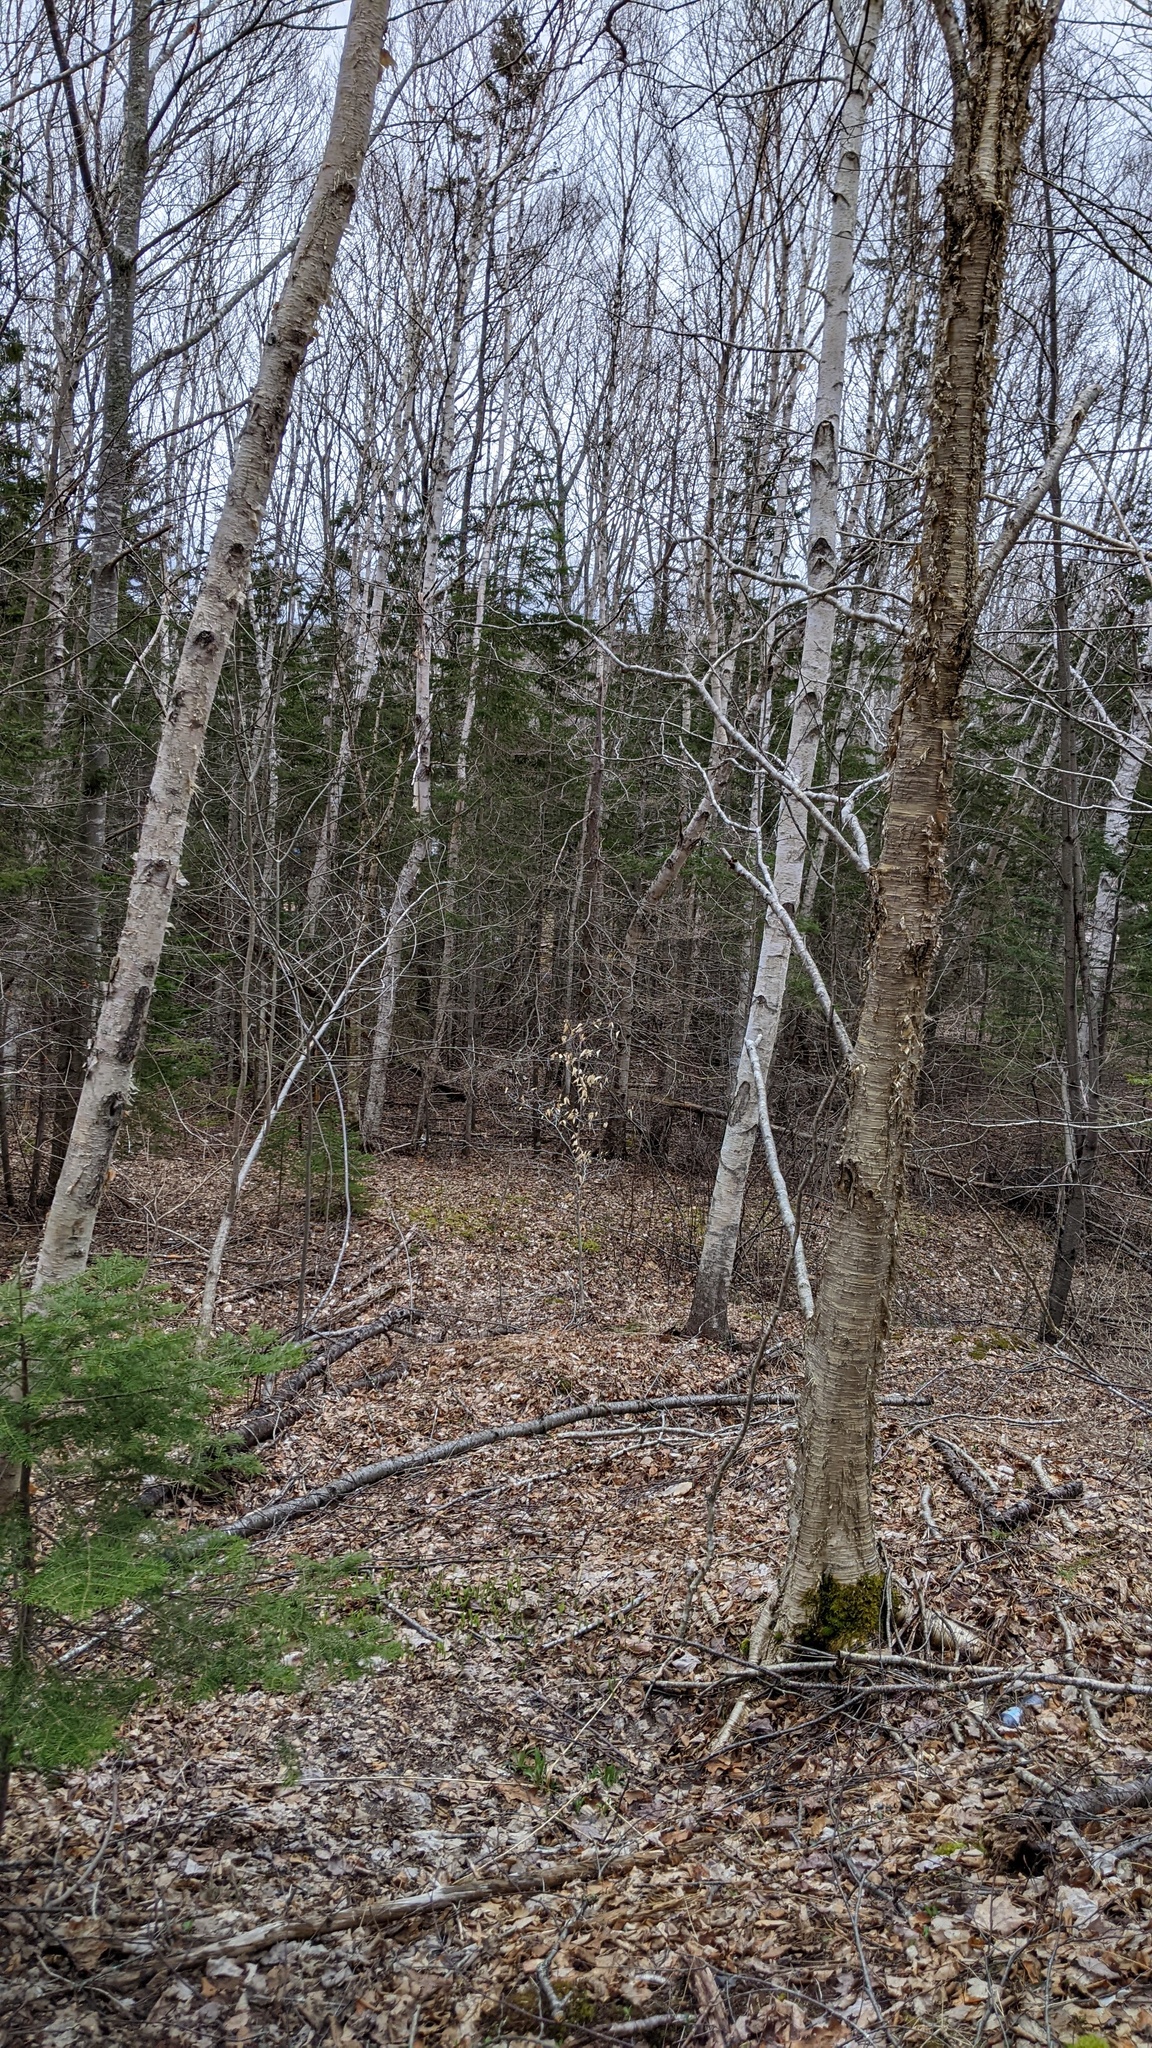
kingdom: Plantae
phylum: Tracheophyta
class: Magnoliopsida
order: Fagales
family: Fagaceae
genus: Fagus
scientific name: Fagus grandifolia
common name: American beech
